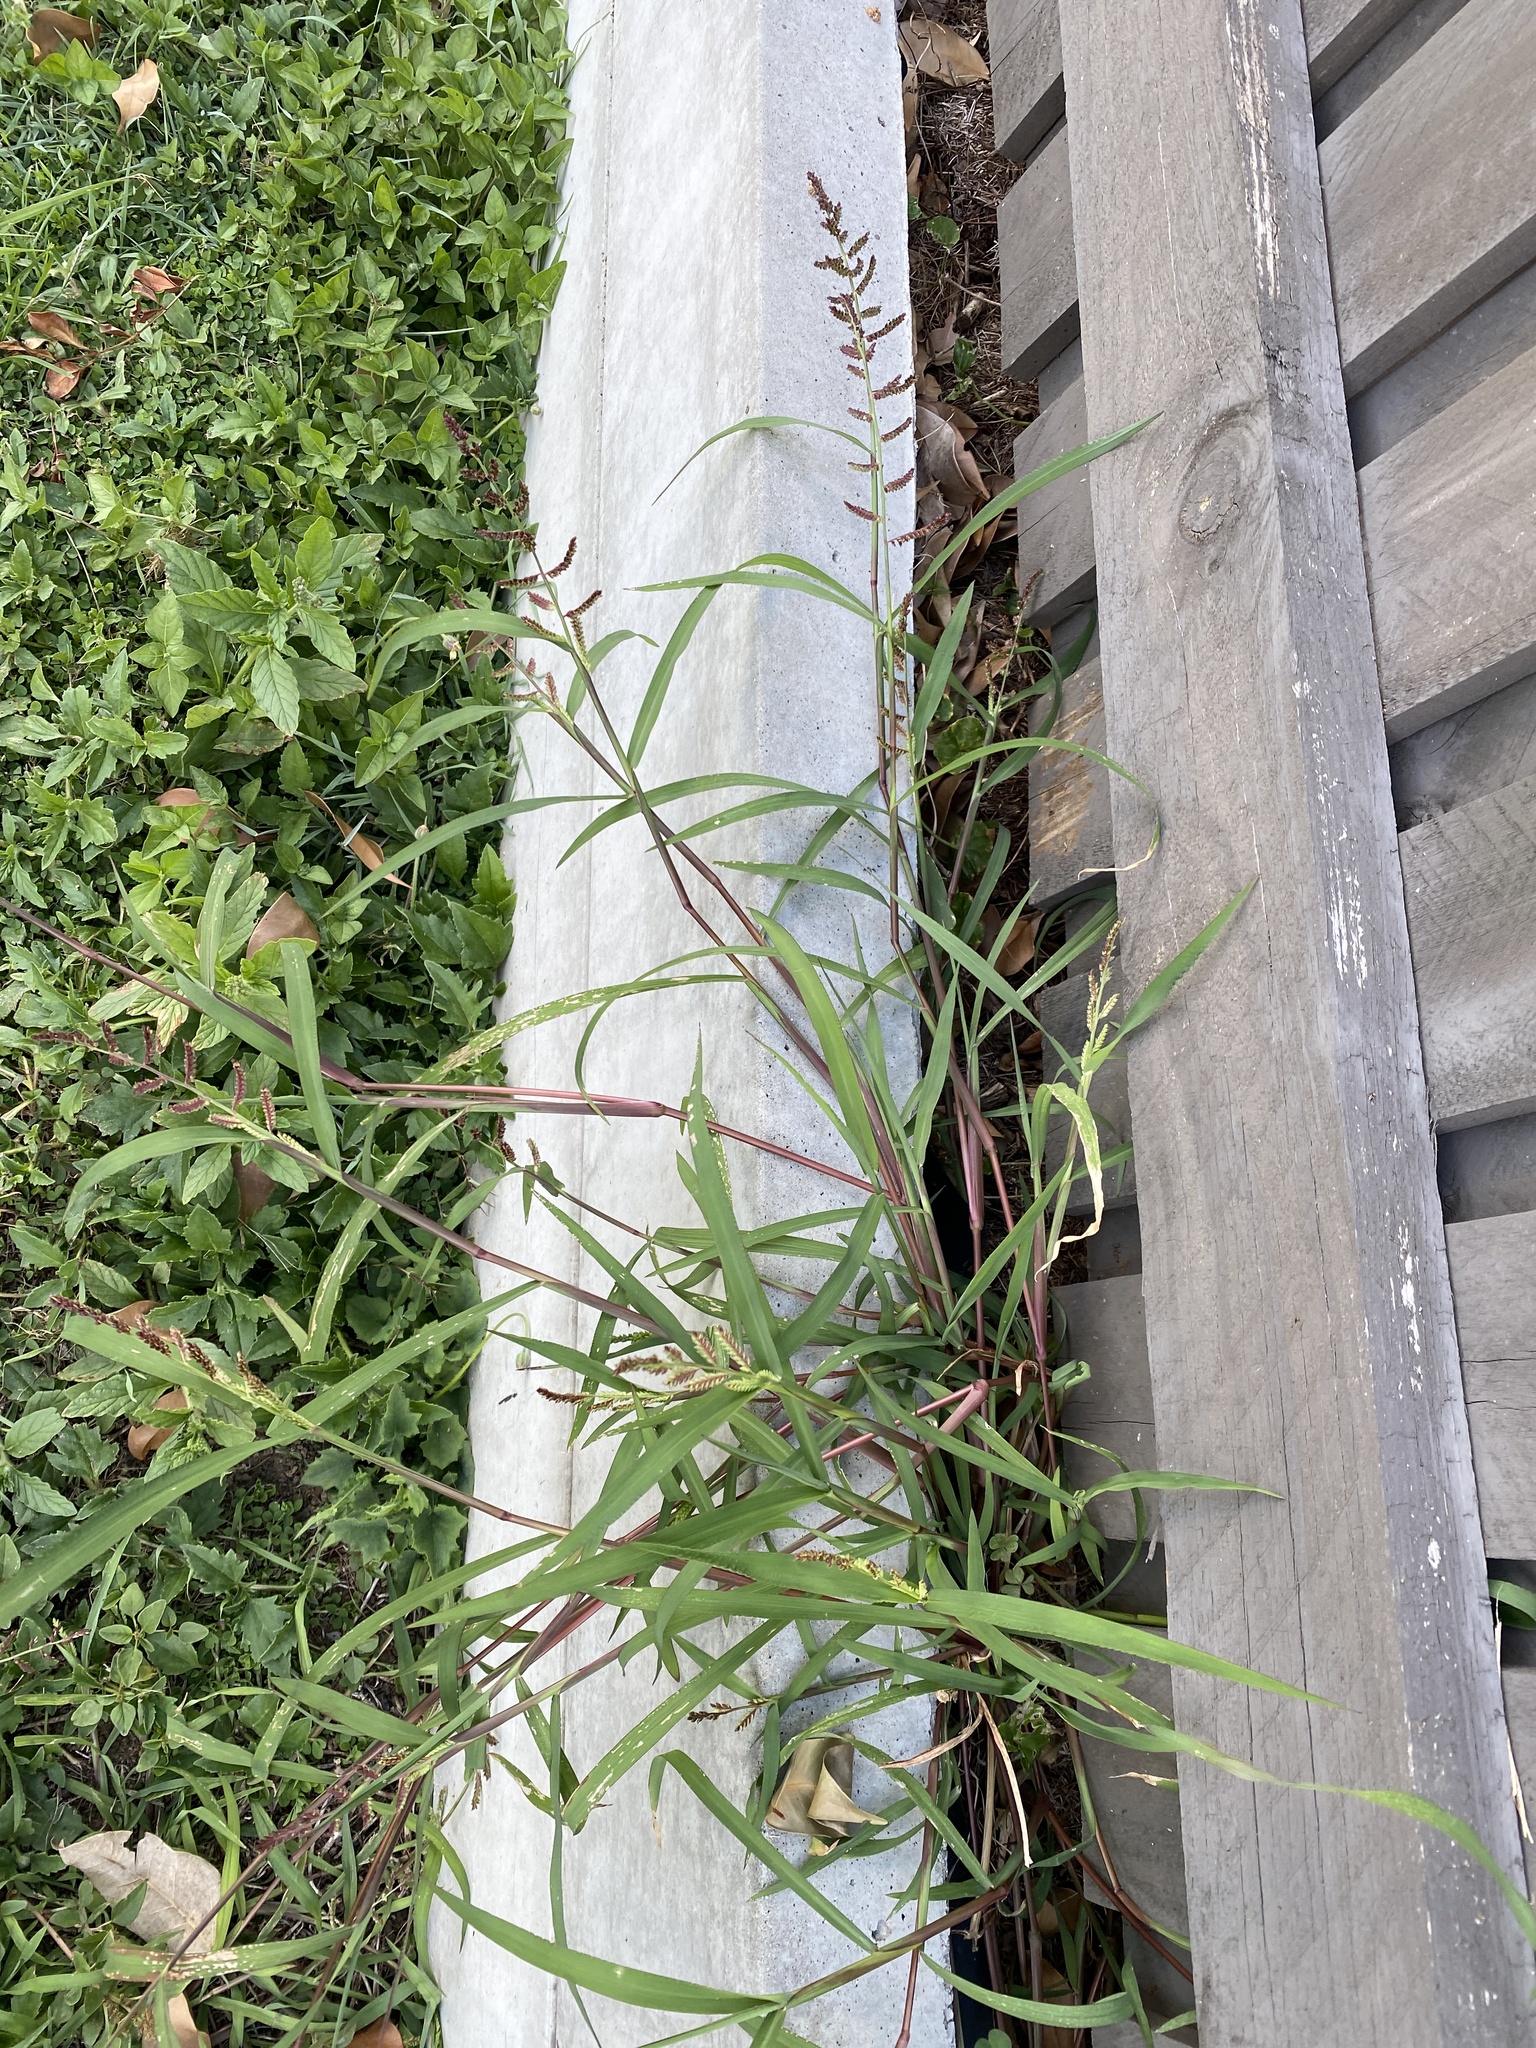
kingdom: Plantae
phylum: Tracheophyta
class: Liliopsida
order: Poales
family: Poaceae
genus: Echinochloa
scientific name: Echinochloa colonum
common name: Jungle rice
